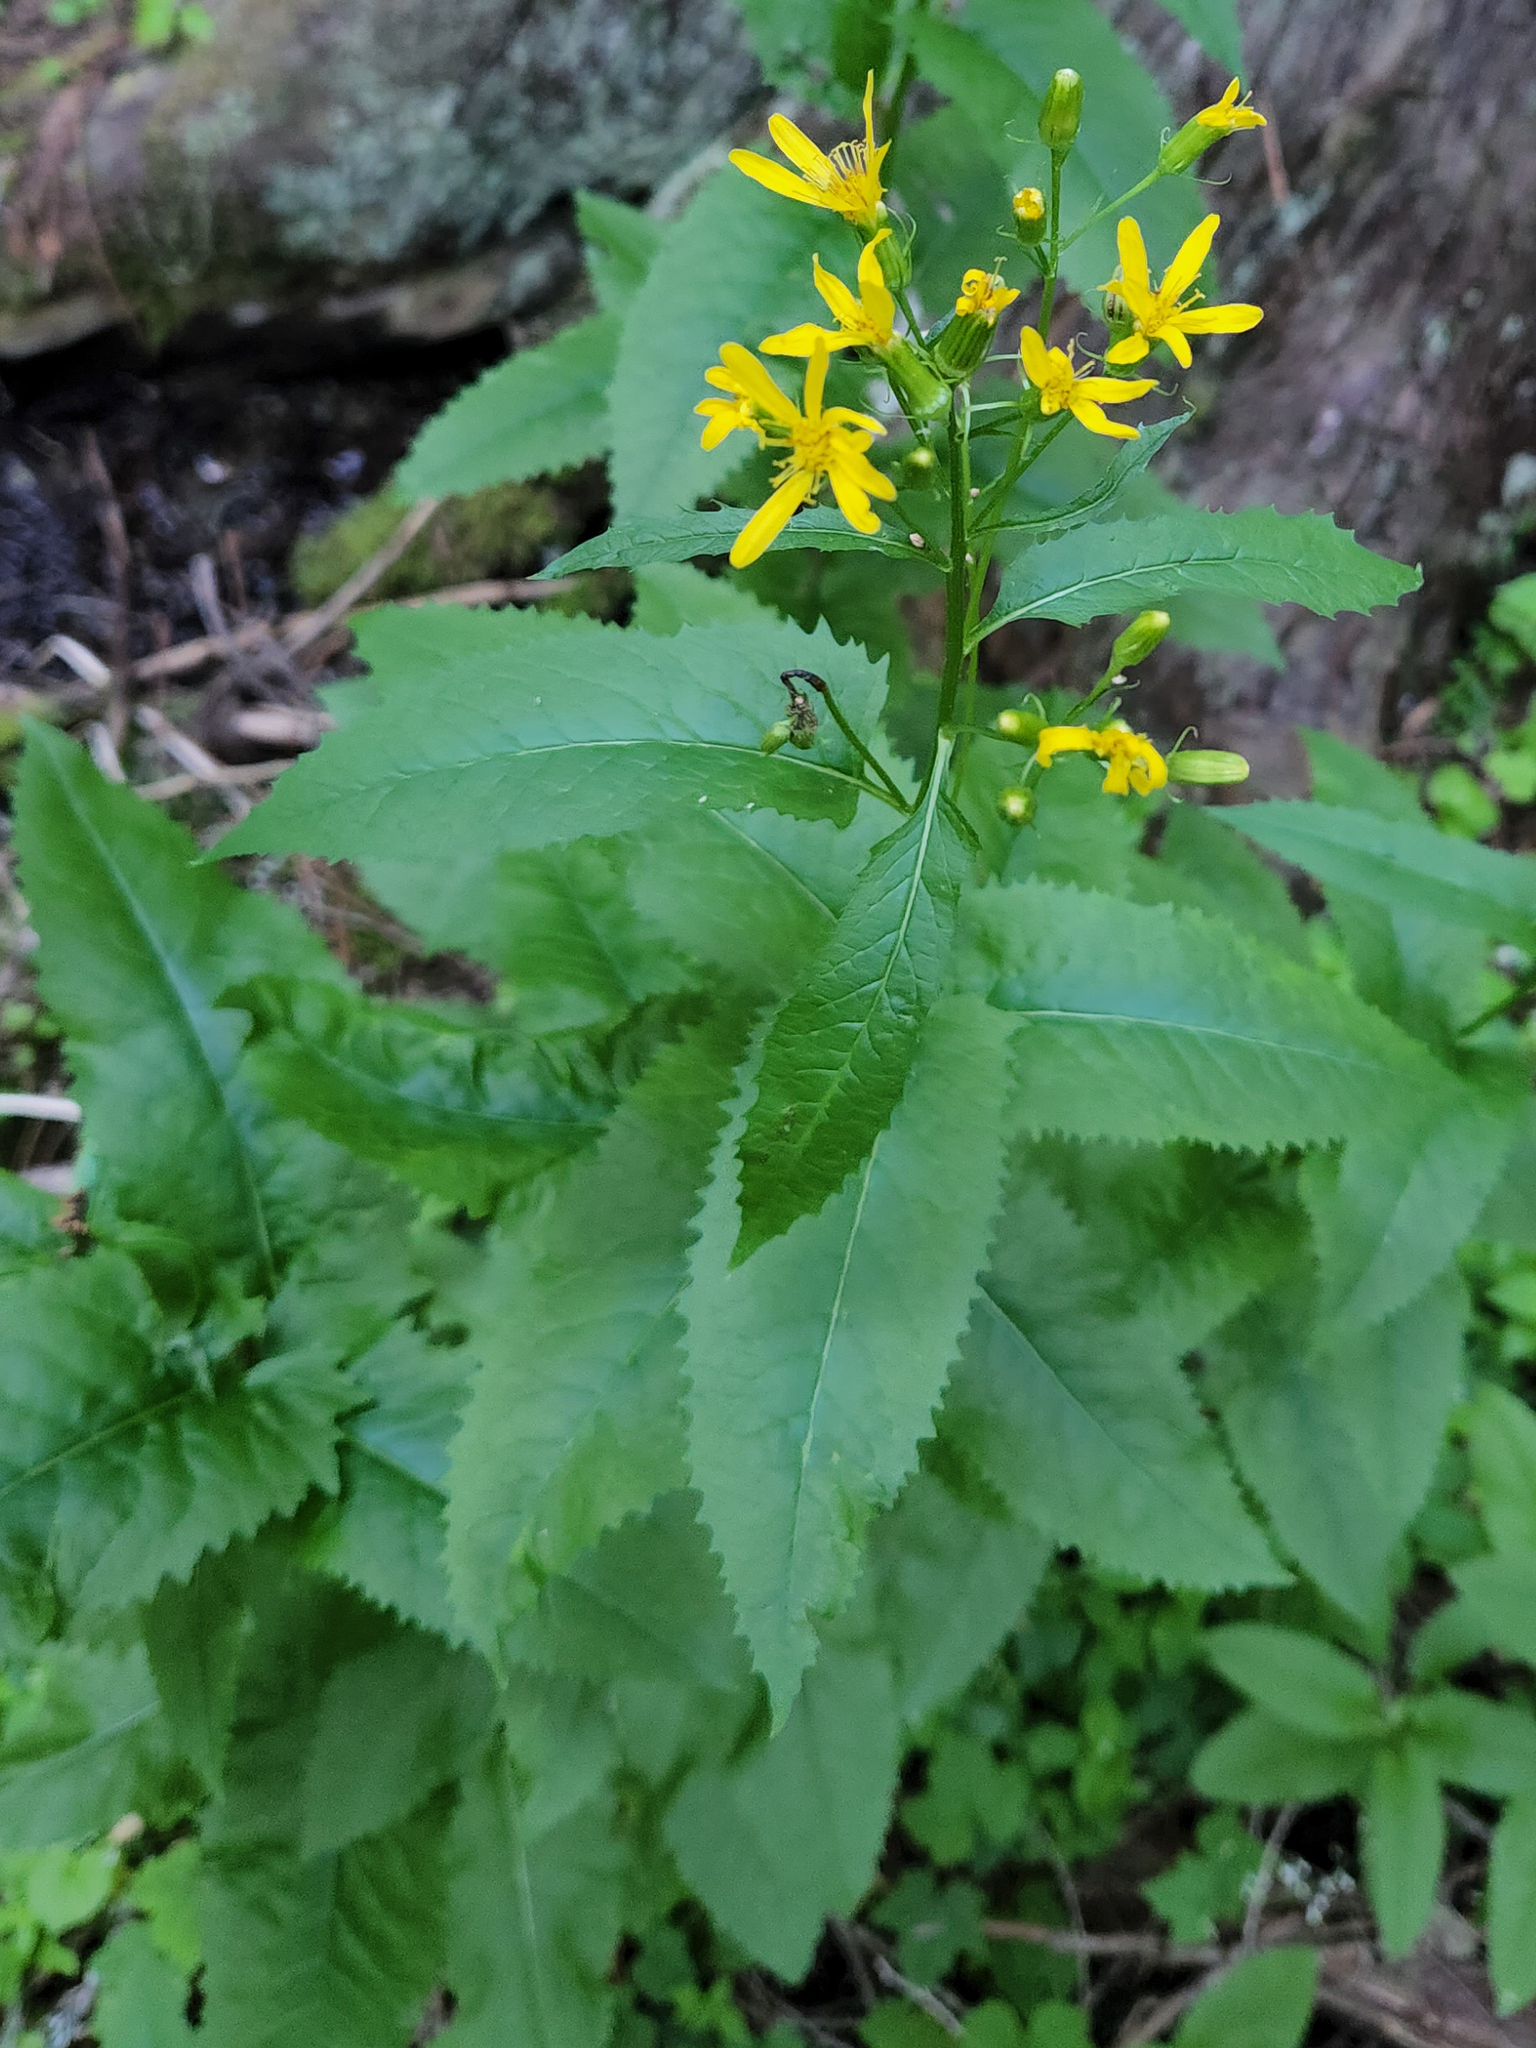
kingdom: Plantae
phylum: Tracheophyta
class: Magnoliopsida
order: Asterales
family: Asteraceae
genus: Senecio
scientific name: Senecio triangularis
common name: Arrowleaf butterweed
